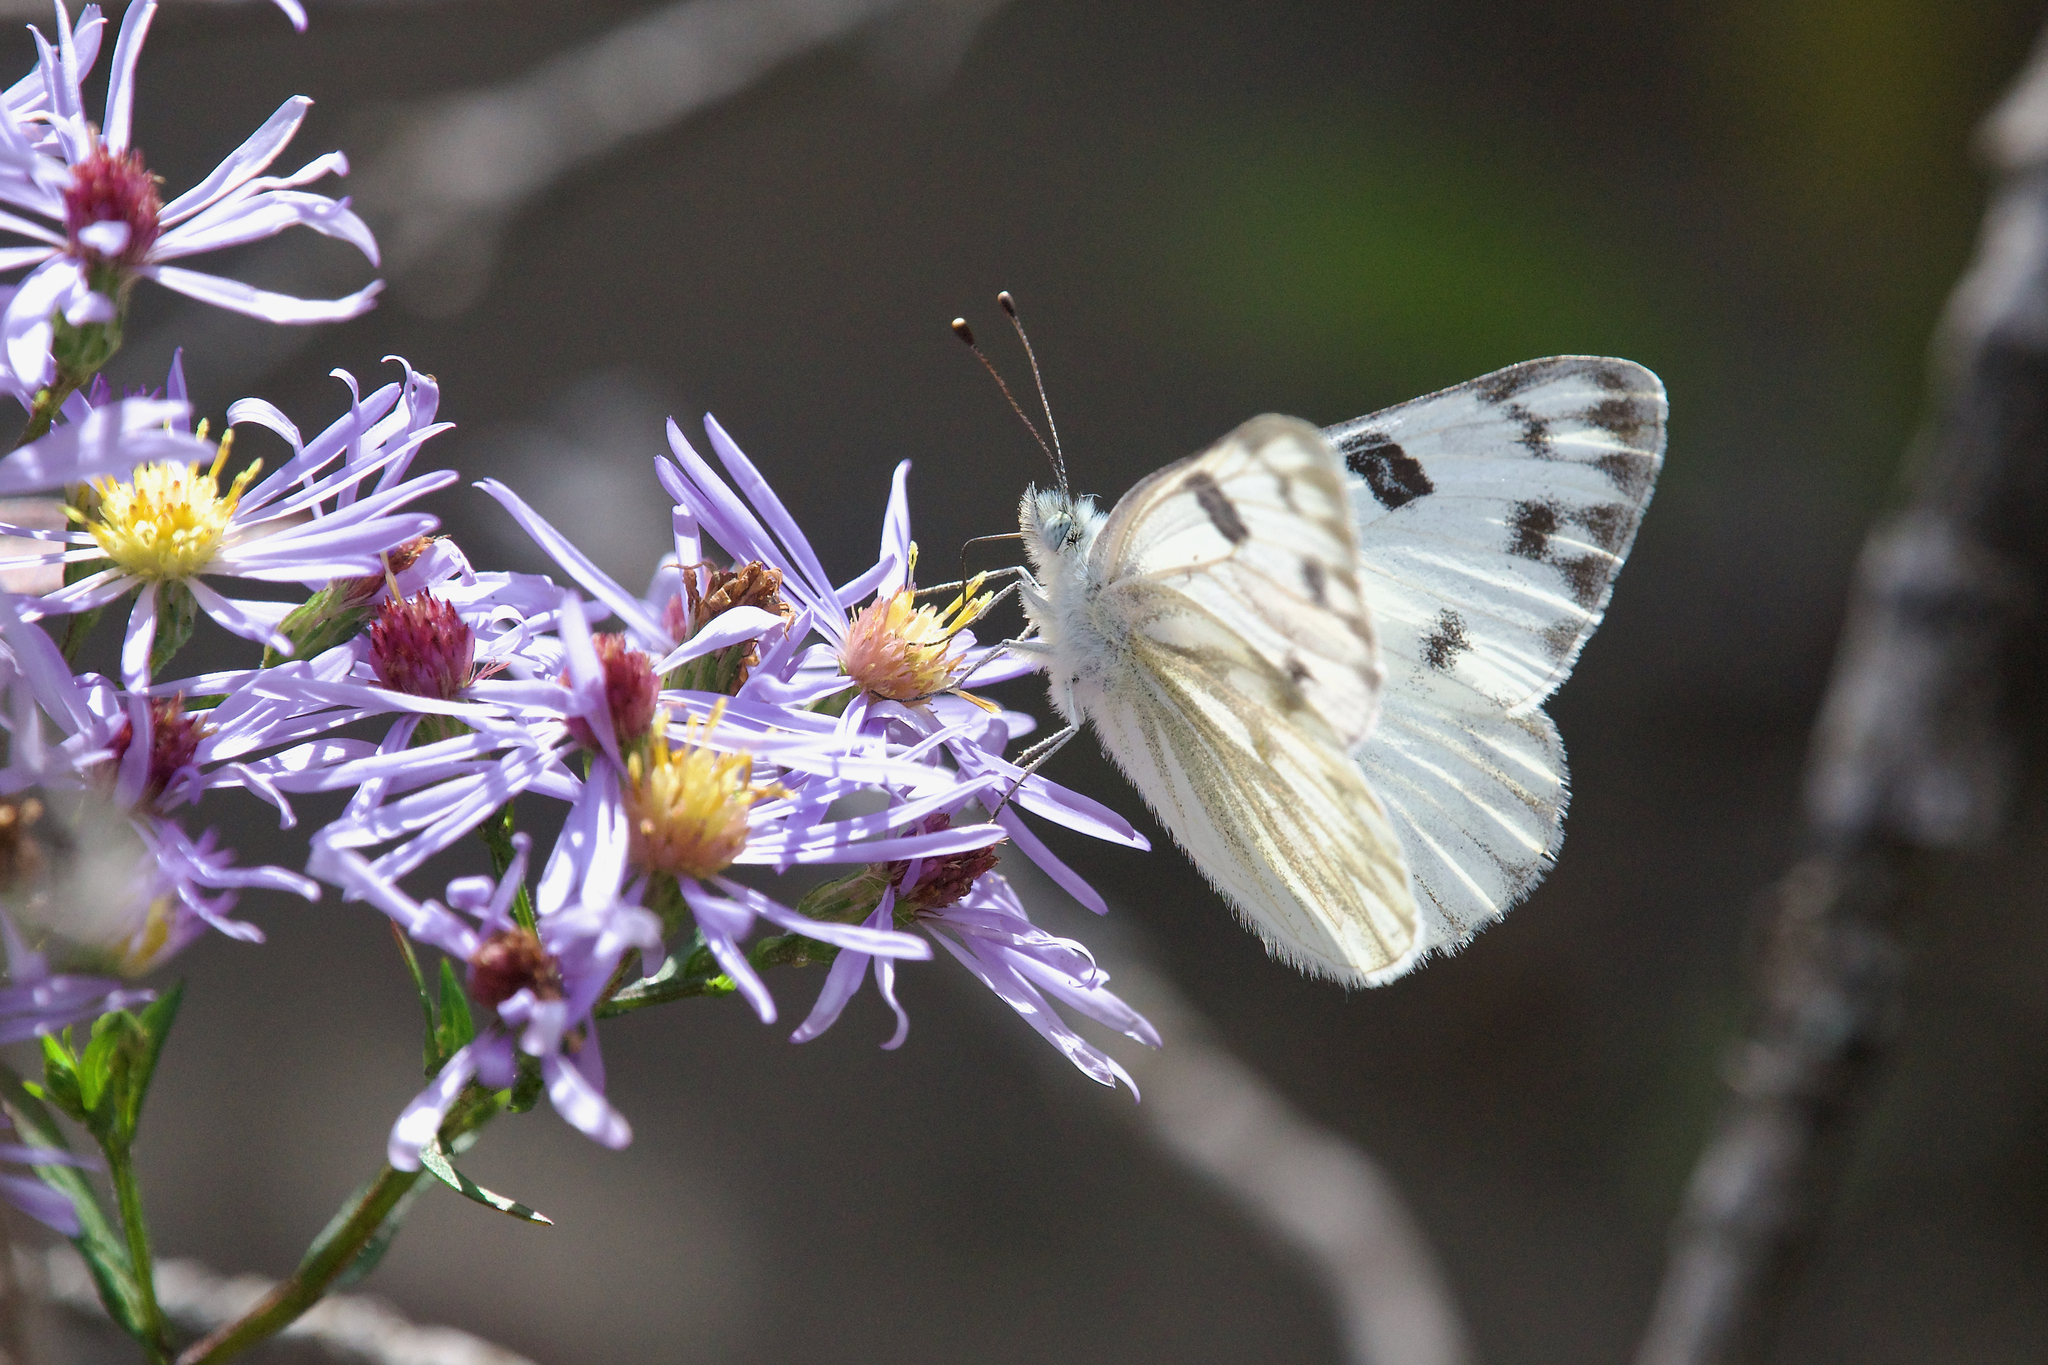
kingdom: Animalia
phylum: Arthropoda
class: Insecta
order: Lepidoptera
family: Pieridae
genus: Pontia
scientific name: Pontia occidentalis
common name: Western white
